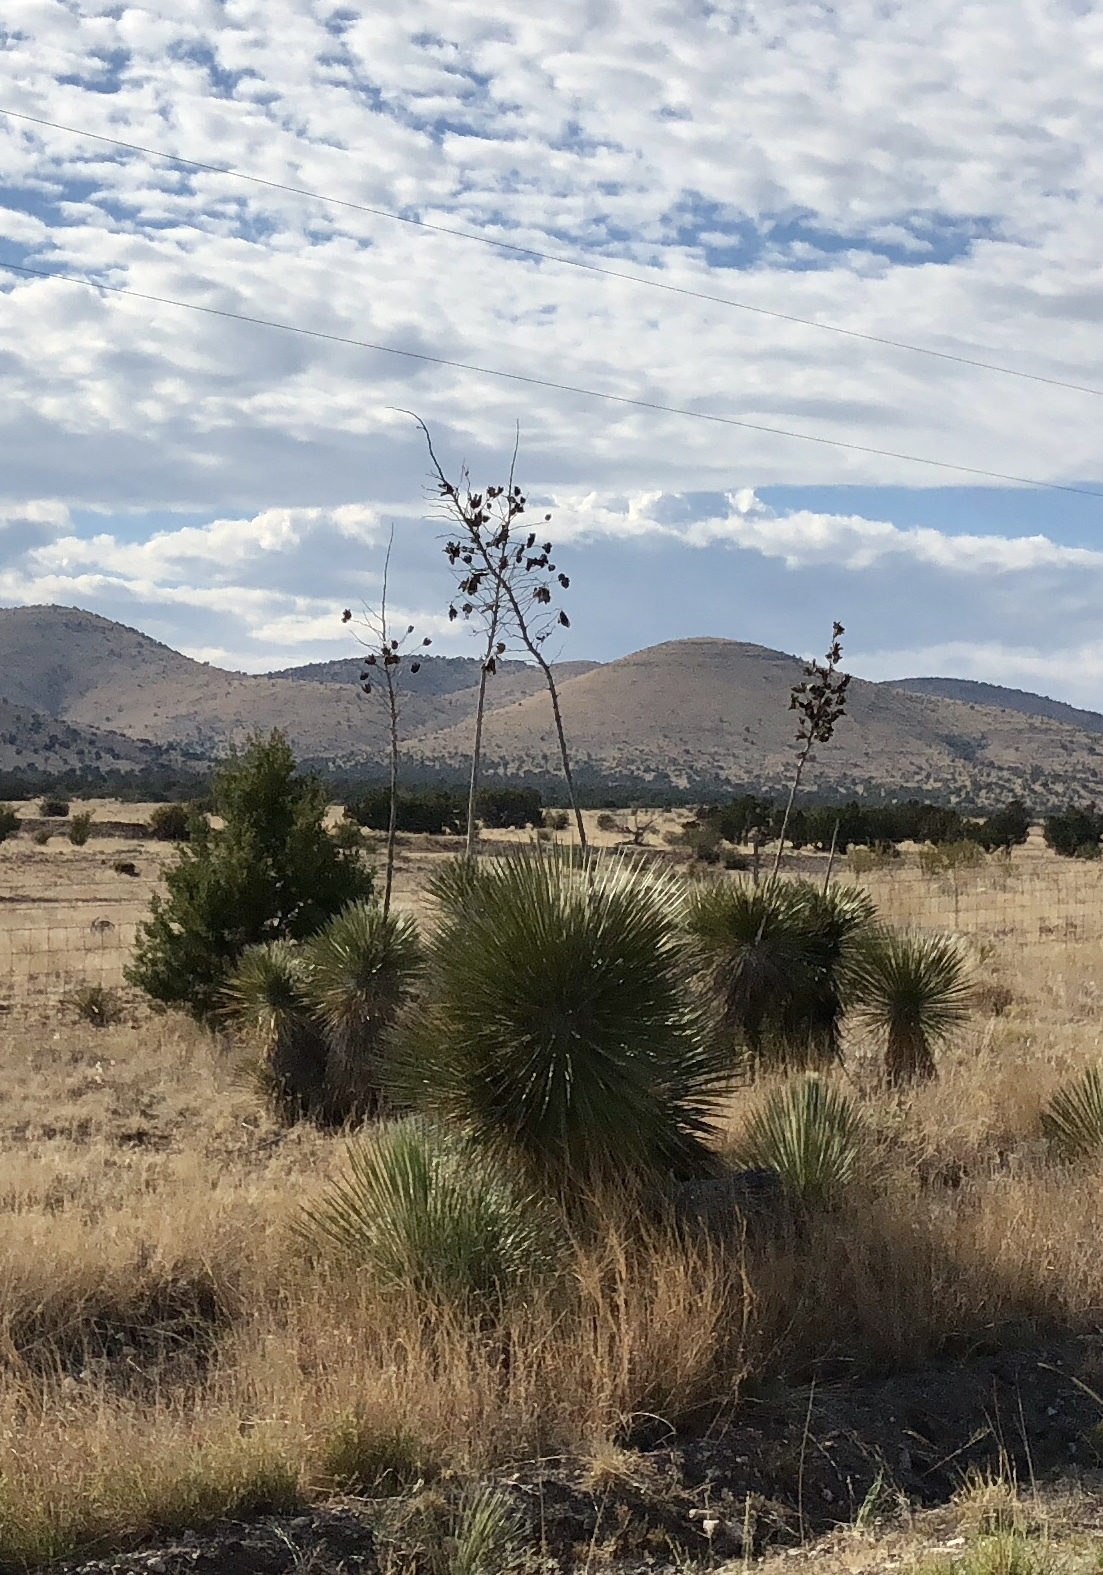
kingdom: Plantae
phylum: Tracheophyta
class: Liliopsida
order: Asparagales
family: Asparagaceae
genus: Yucca
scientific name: Yucca elata
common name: Palmella
